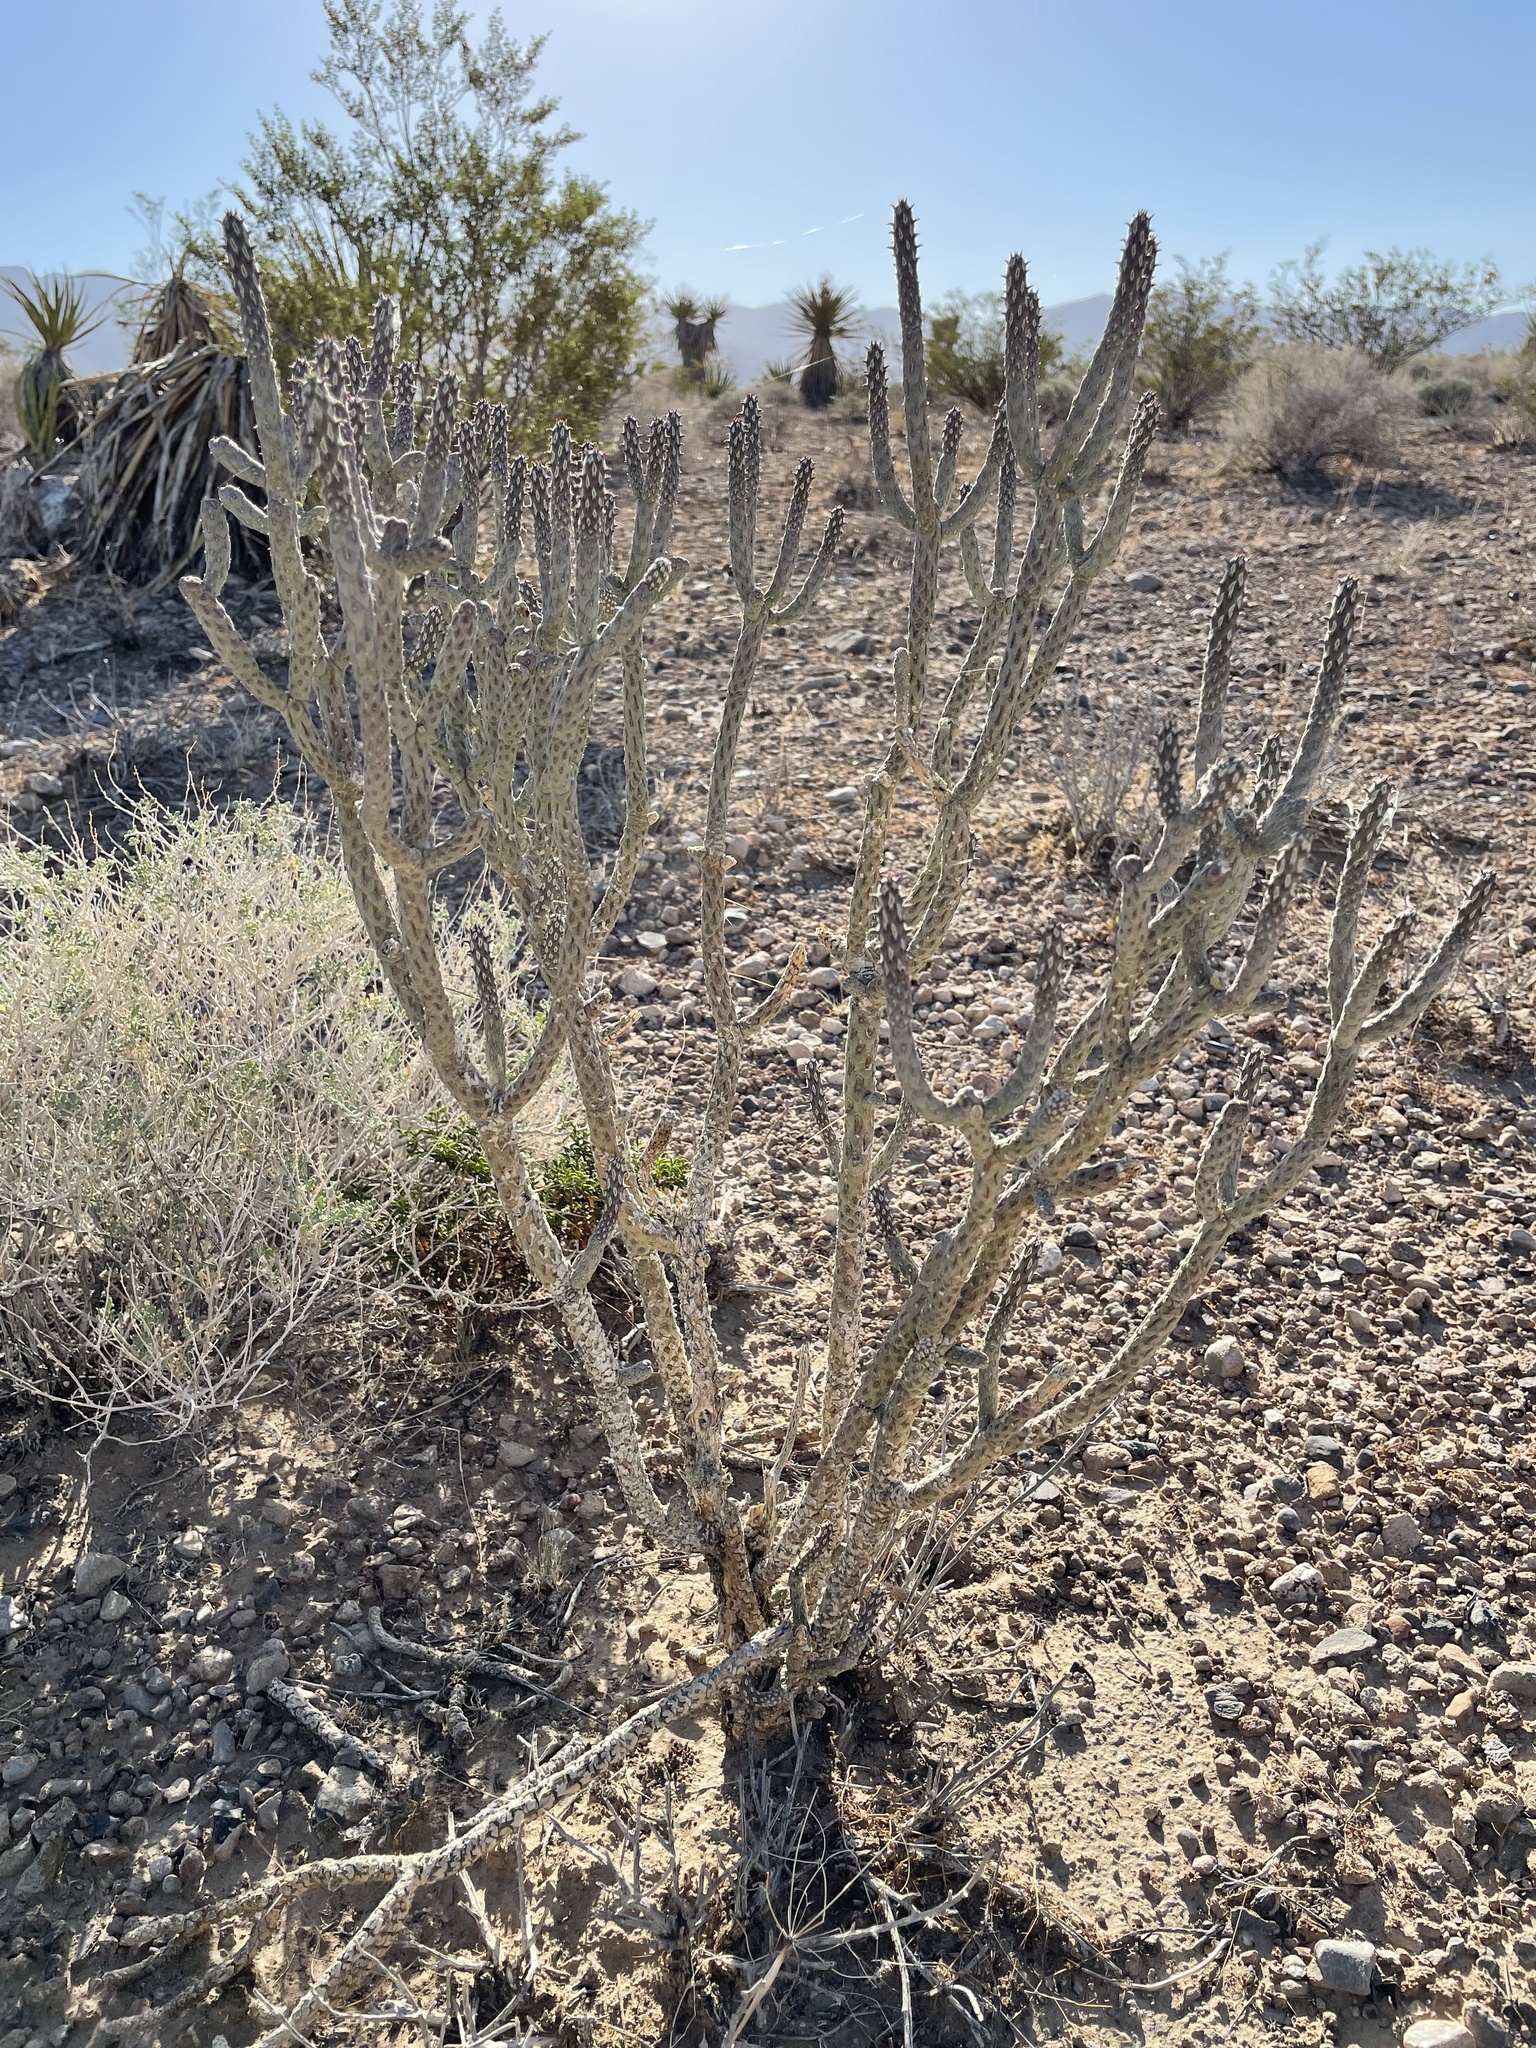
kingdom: Plantae
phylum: Tracheophyta
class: Magnoliopsida
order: Caryophyllales
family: Cactaceae
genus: Cylindropuntia
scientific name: Cylindropuntia ramosissima
